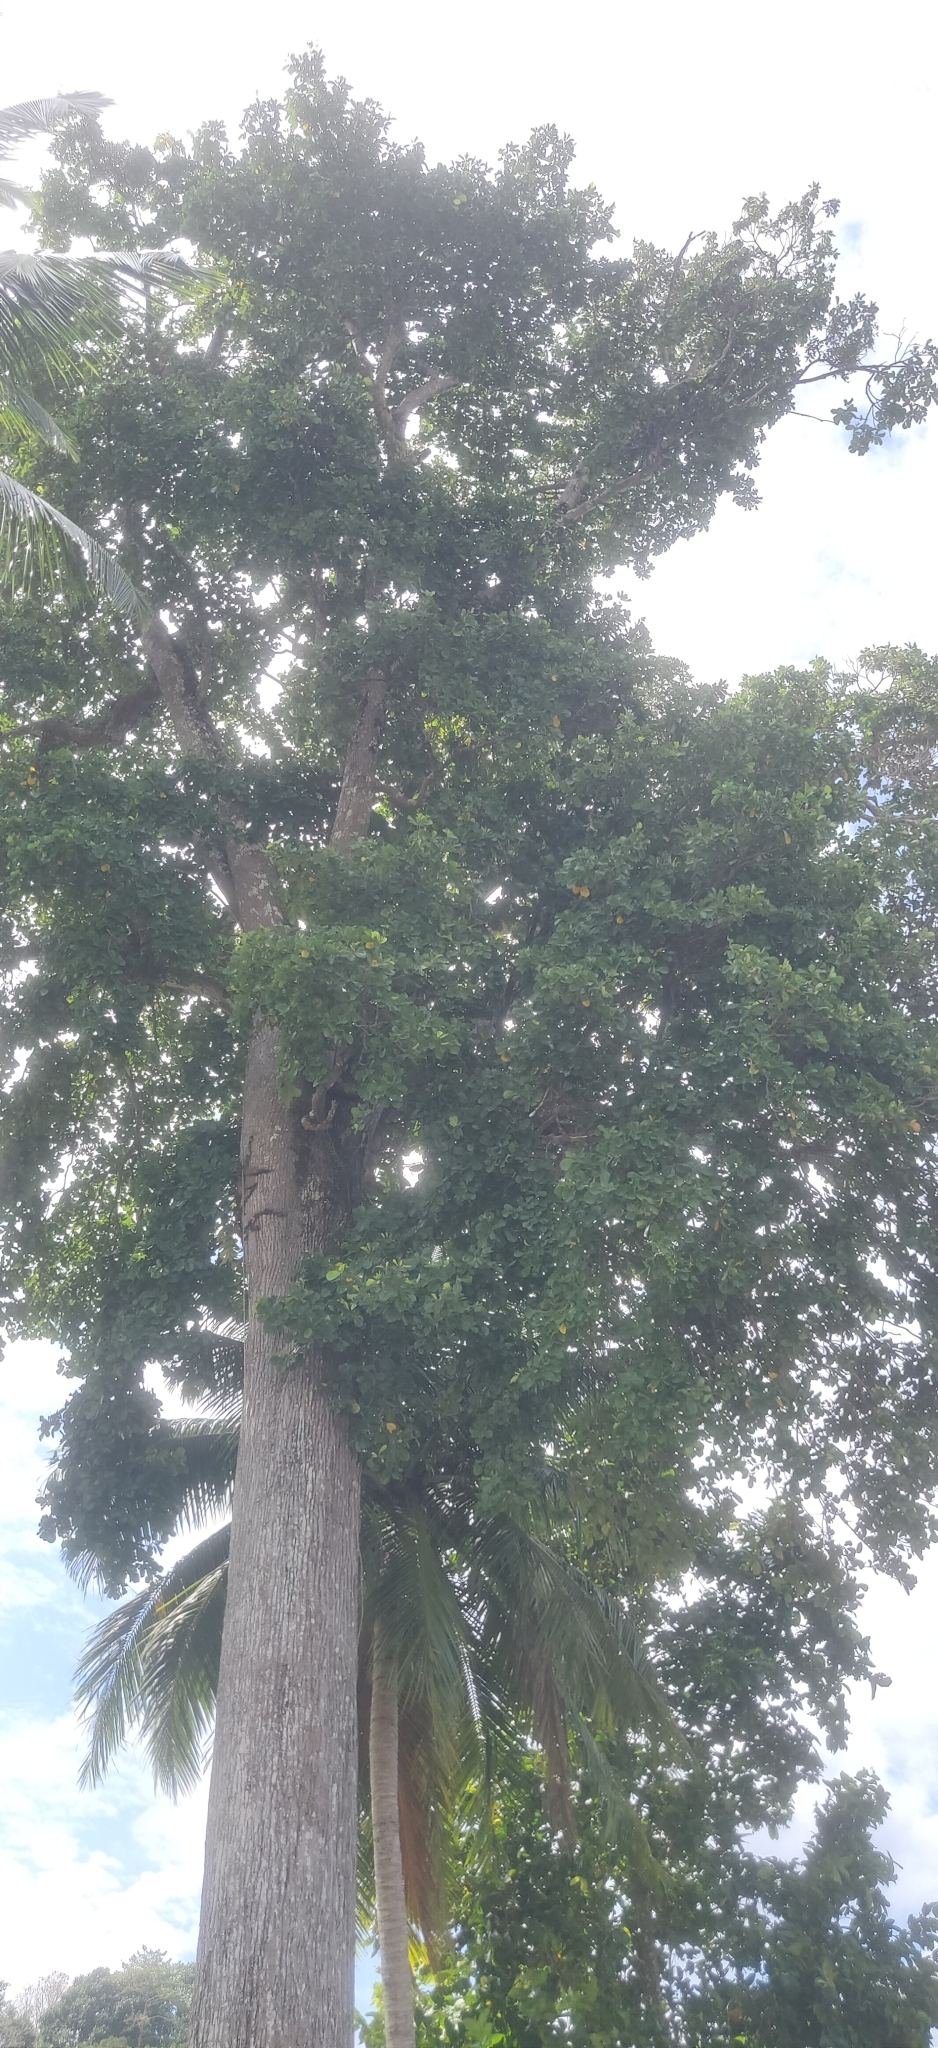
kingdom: Plantae
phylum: Tracheophyta
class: Magnoliopsida
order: Ericales
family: Sapotaceae
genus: Manilkara
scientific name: Manilkara littoralis
